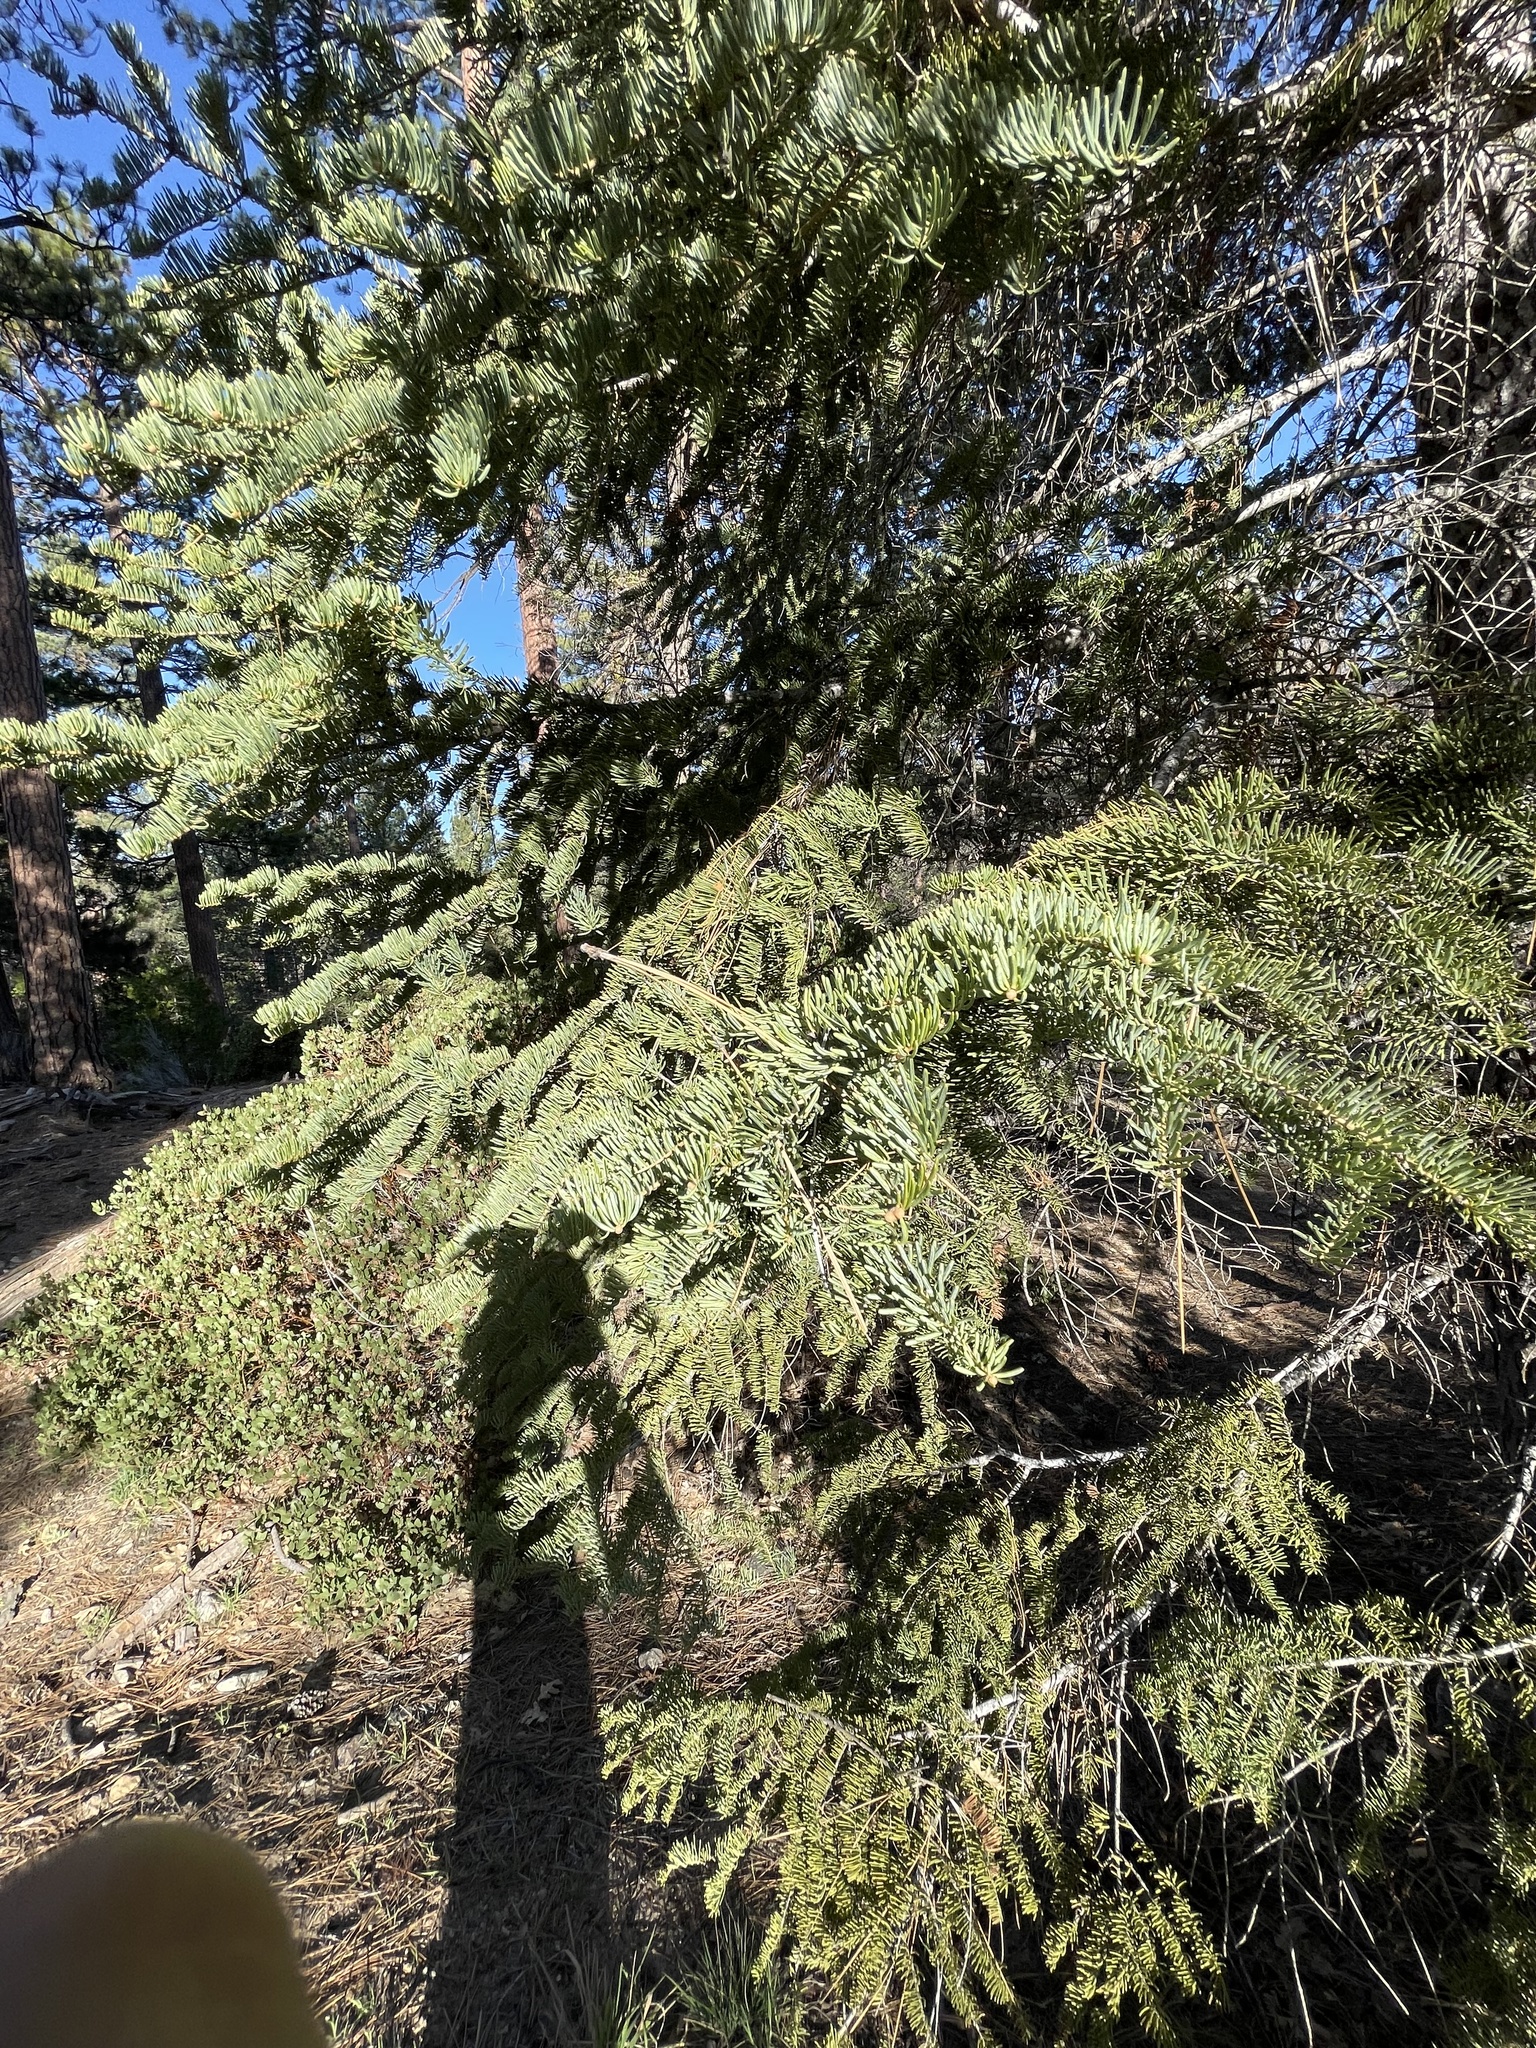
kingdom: Plantae
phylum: Tracheophyta
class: Pinopsida
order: Pinales
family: Pinaceae
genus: Abies
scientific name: Abies concolor
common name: Colorado fir
